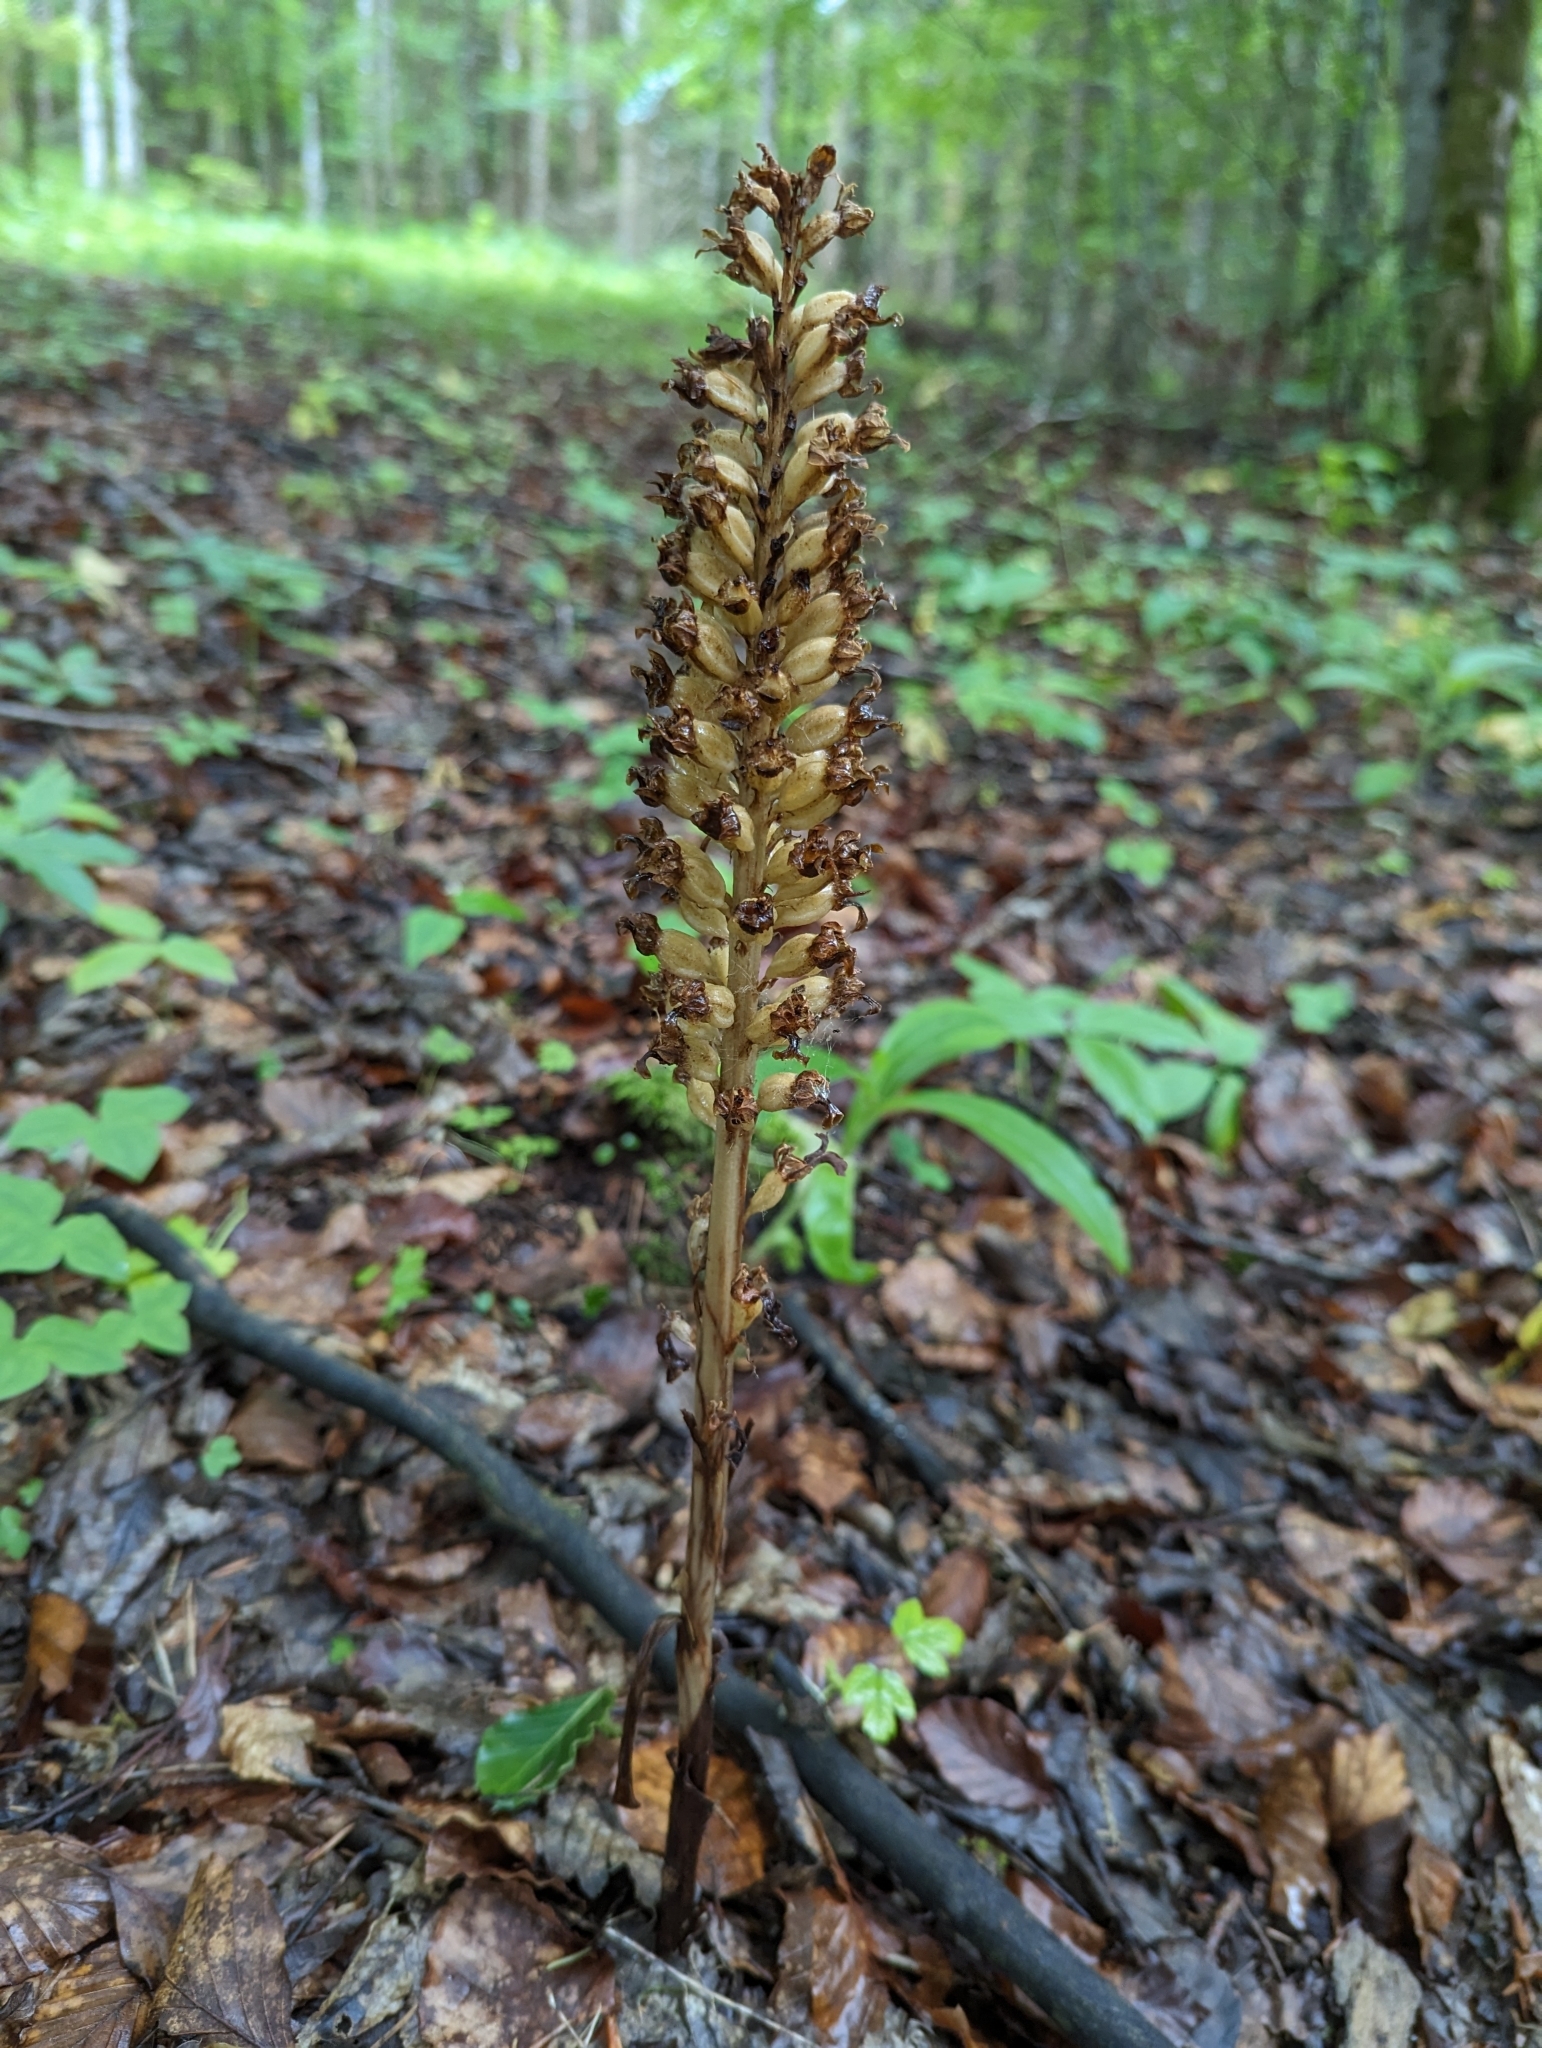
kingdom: Plantae
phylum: Tracheophyta
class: Liliopsida
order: Asparagales
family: Orchidaceae
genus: Neottia
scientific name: Neottia nidus-avis
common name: Bird's-nest orchid
